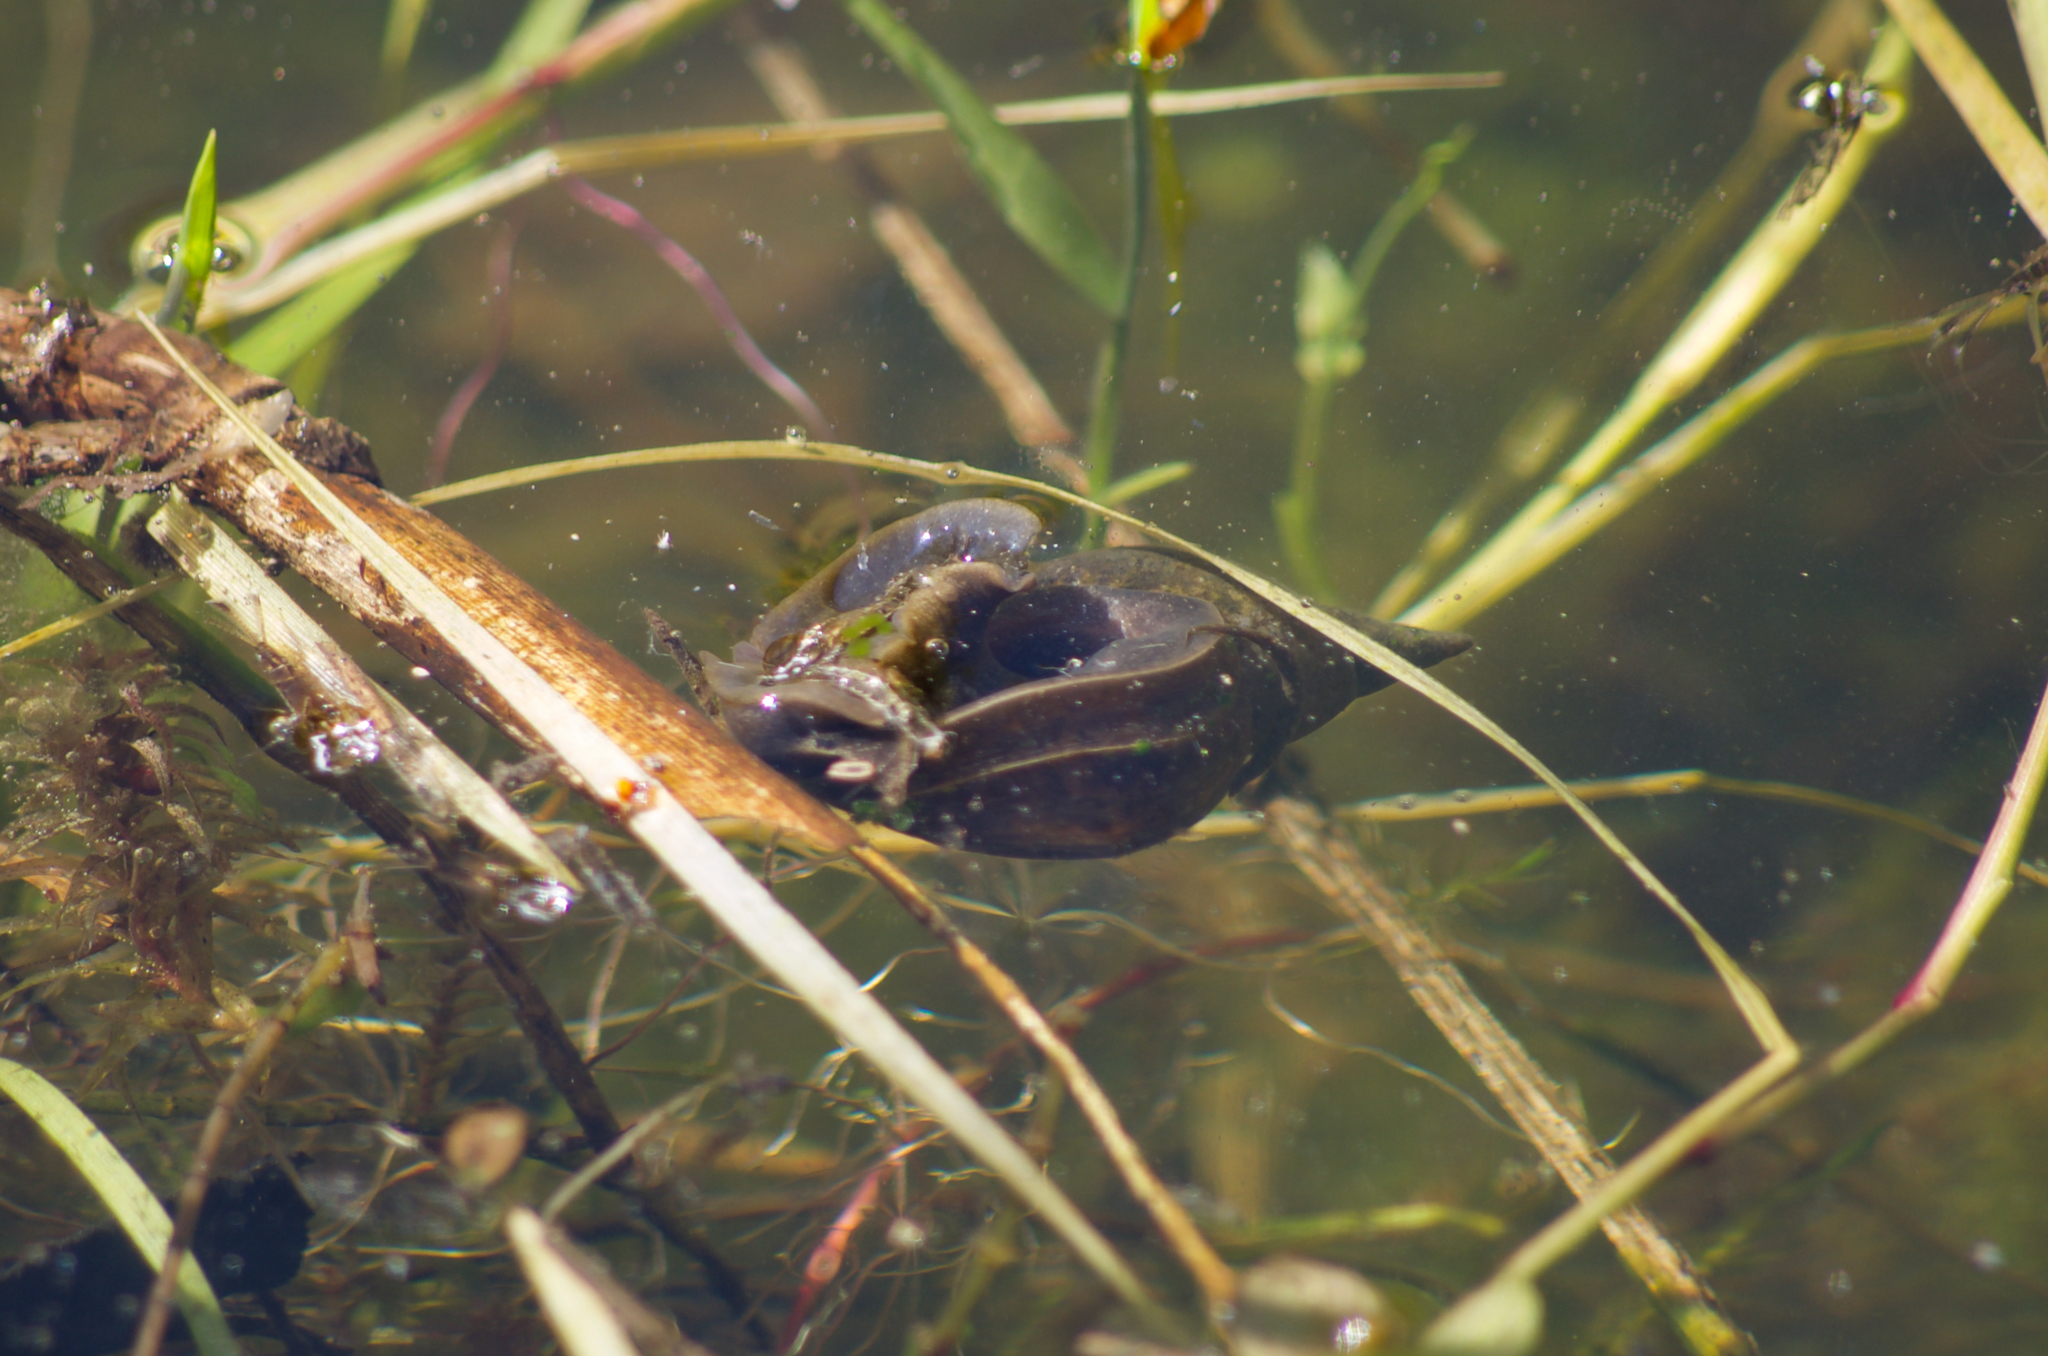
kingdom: Animalia
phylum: Mollusca
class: Gastropoda
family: Lymnaeidae
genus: Lymnaea
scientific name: Lymnaea stagnalis
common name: Great pond snail
